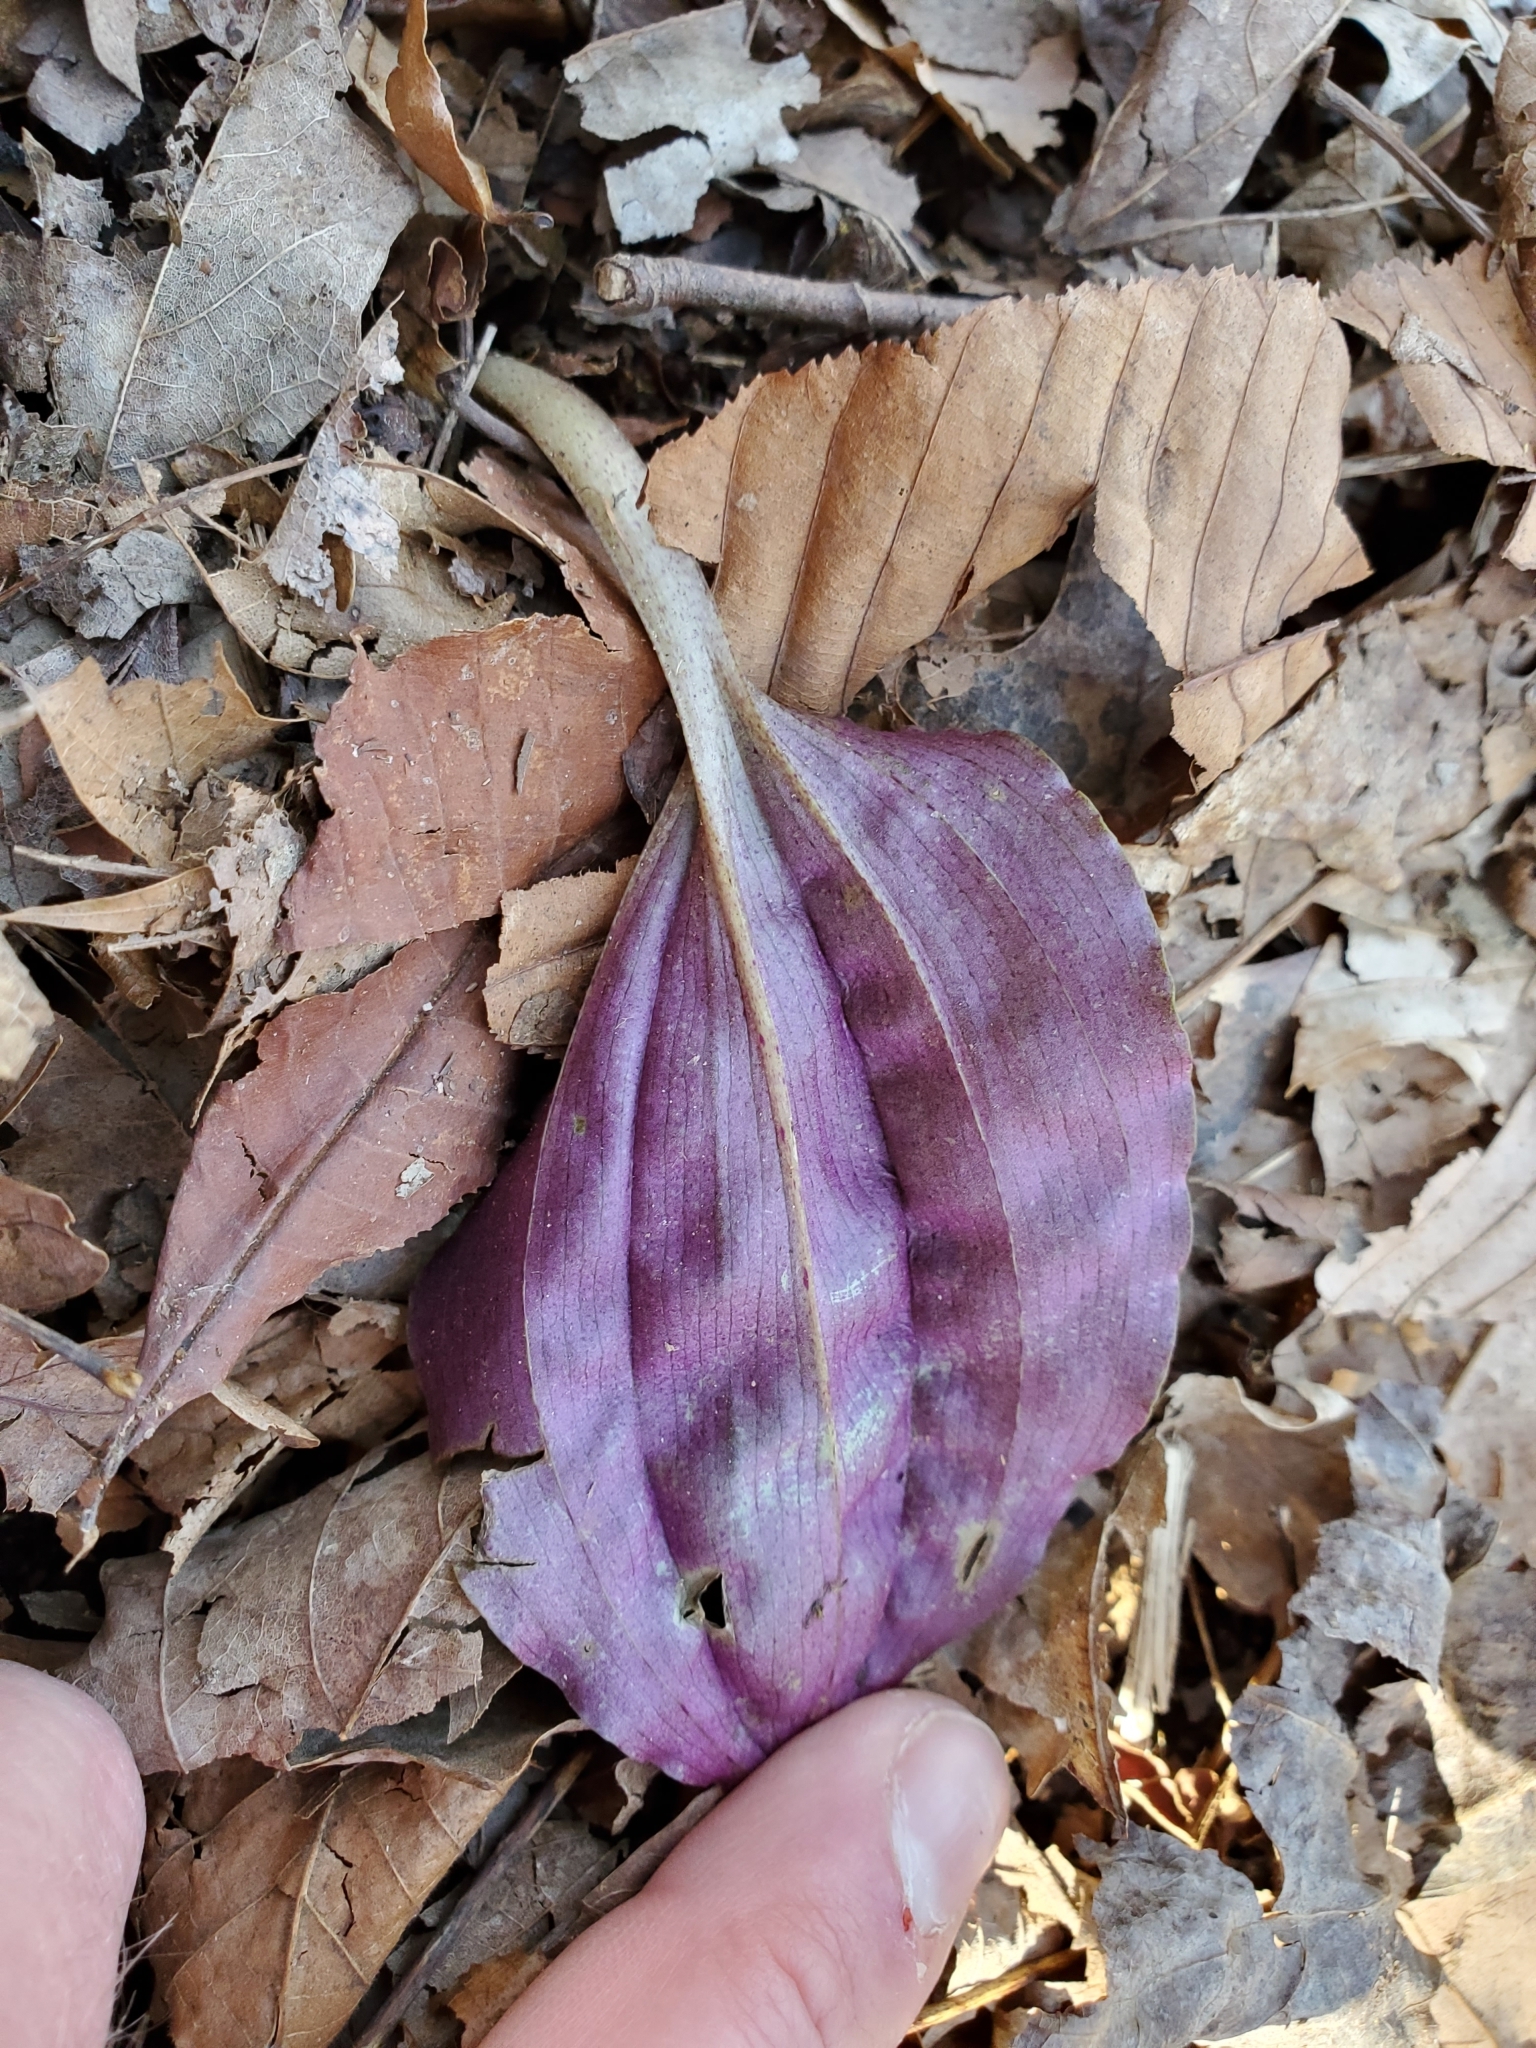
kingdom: Plantae
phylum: Tracheophyta
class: Liliopsida
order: Asparagales
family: Orchidaceae
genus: Tipularia
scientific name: Tipularia discolor
